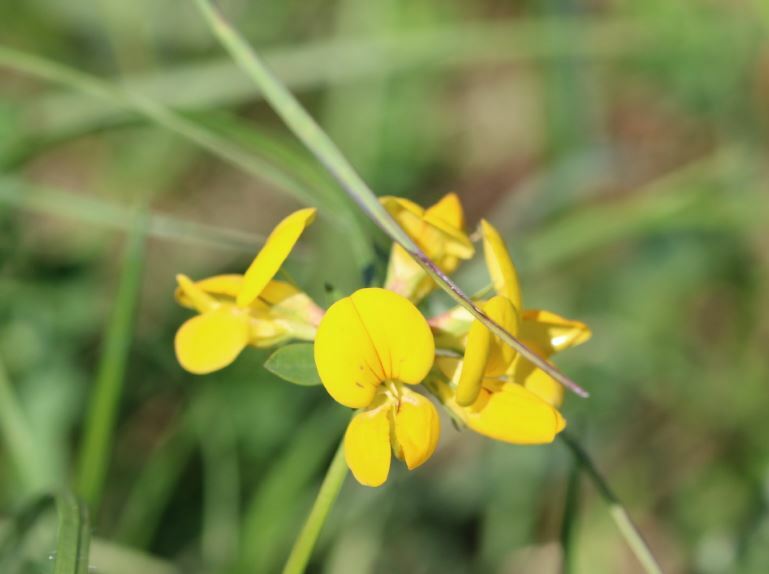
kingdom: Plantae
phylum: Tracheophyta
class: Magnoliopsida
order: Fabales
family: Fabaceae
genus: Lotus
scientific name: Lotus corniculatus
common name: Common bird's-foot-trefoil
